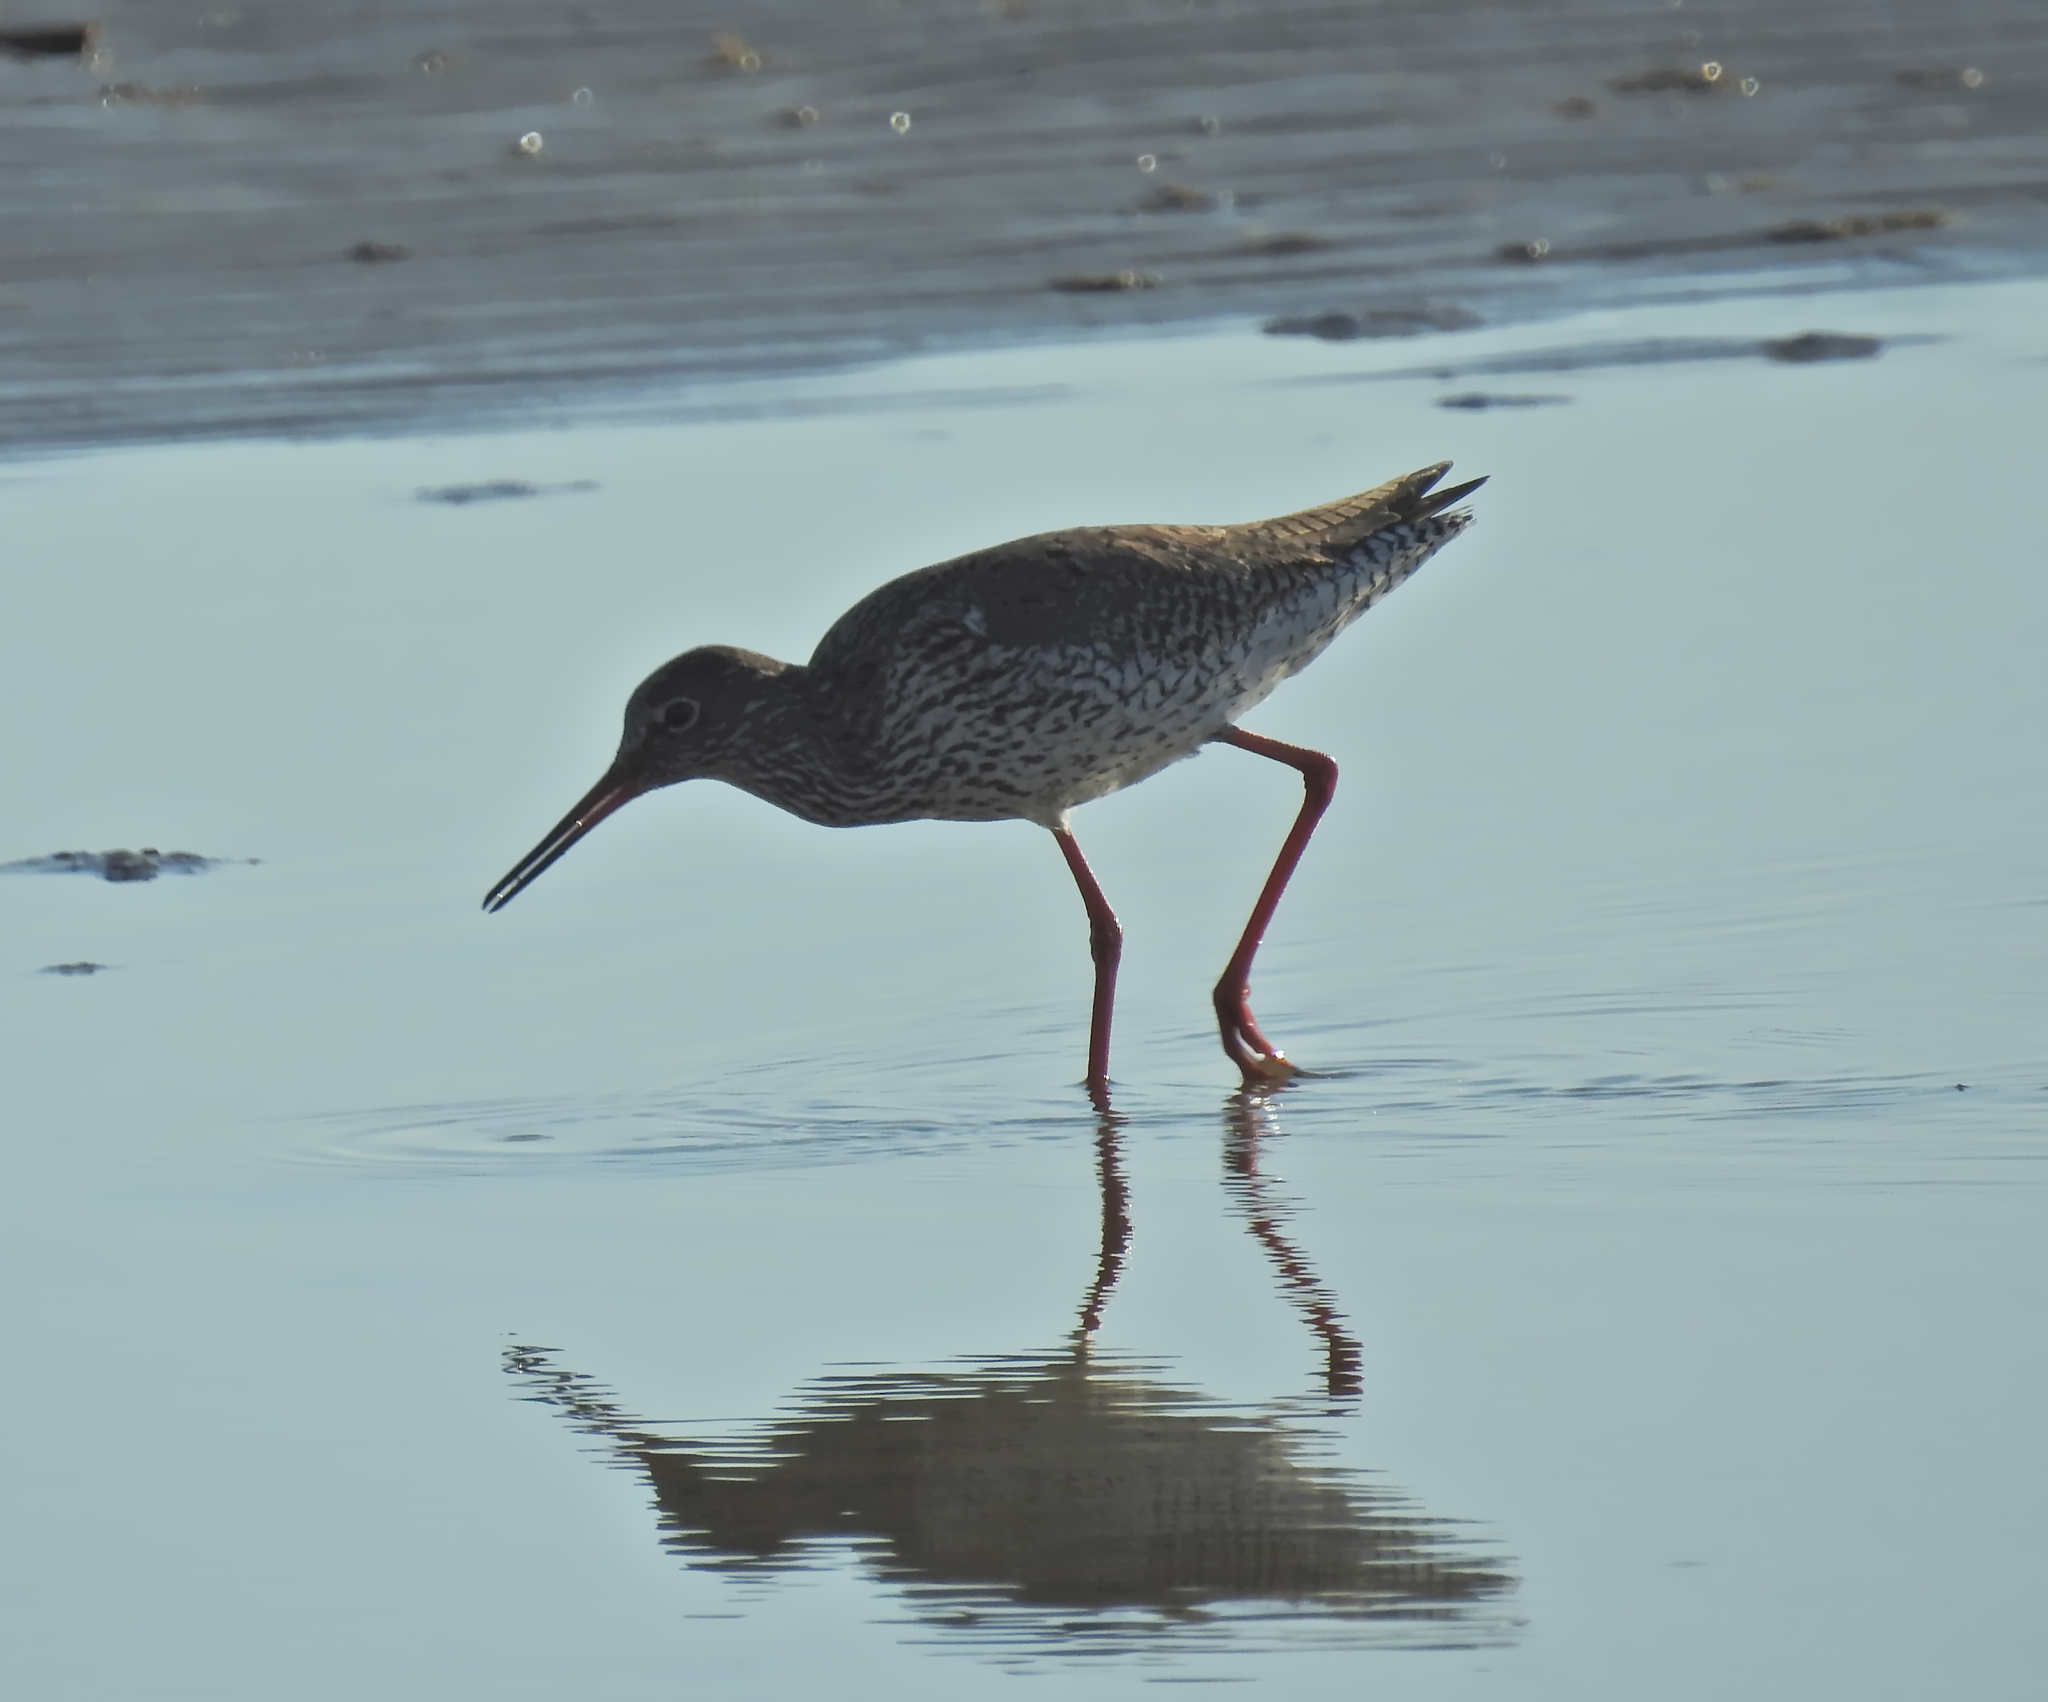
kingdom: Animalia
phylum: Chordata
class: Aves
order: Charadriiformes
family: Scolopacidae
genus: Tringa
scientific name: Tringa totanus
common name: Common redshank
